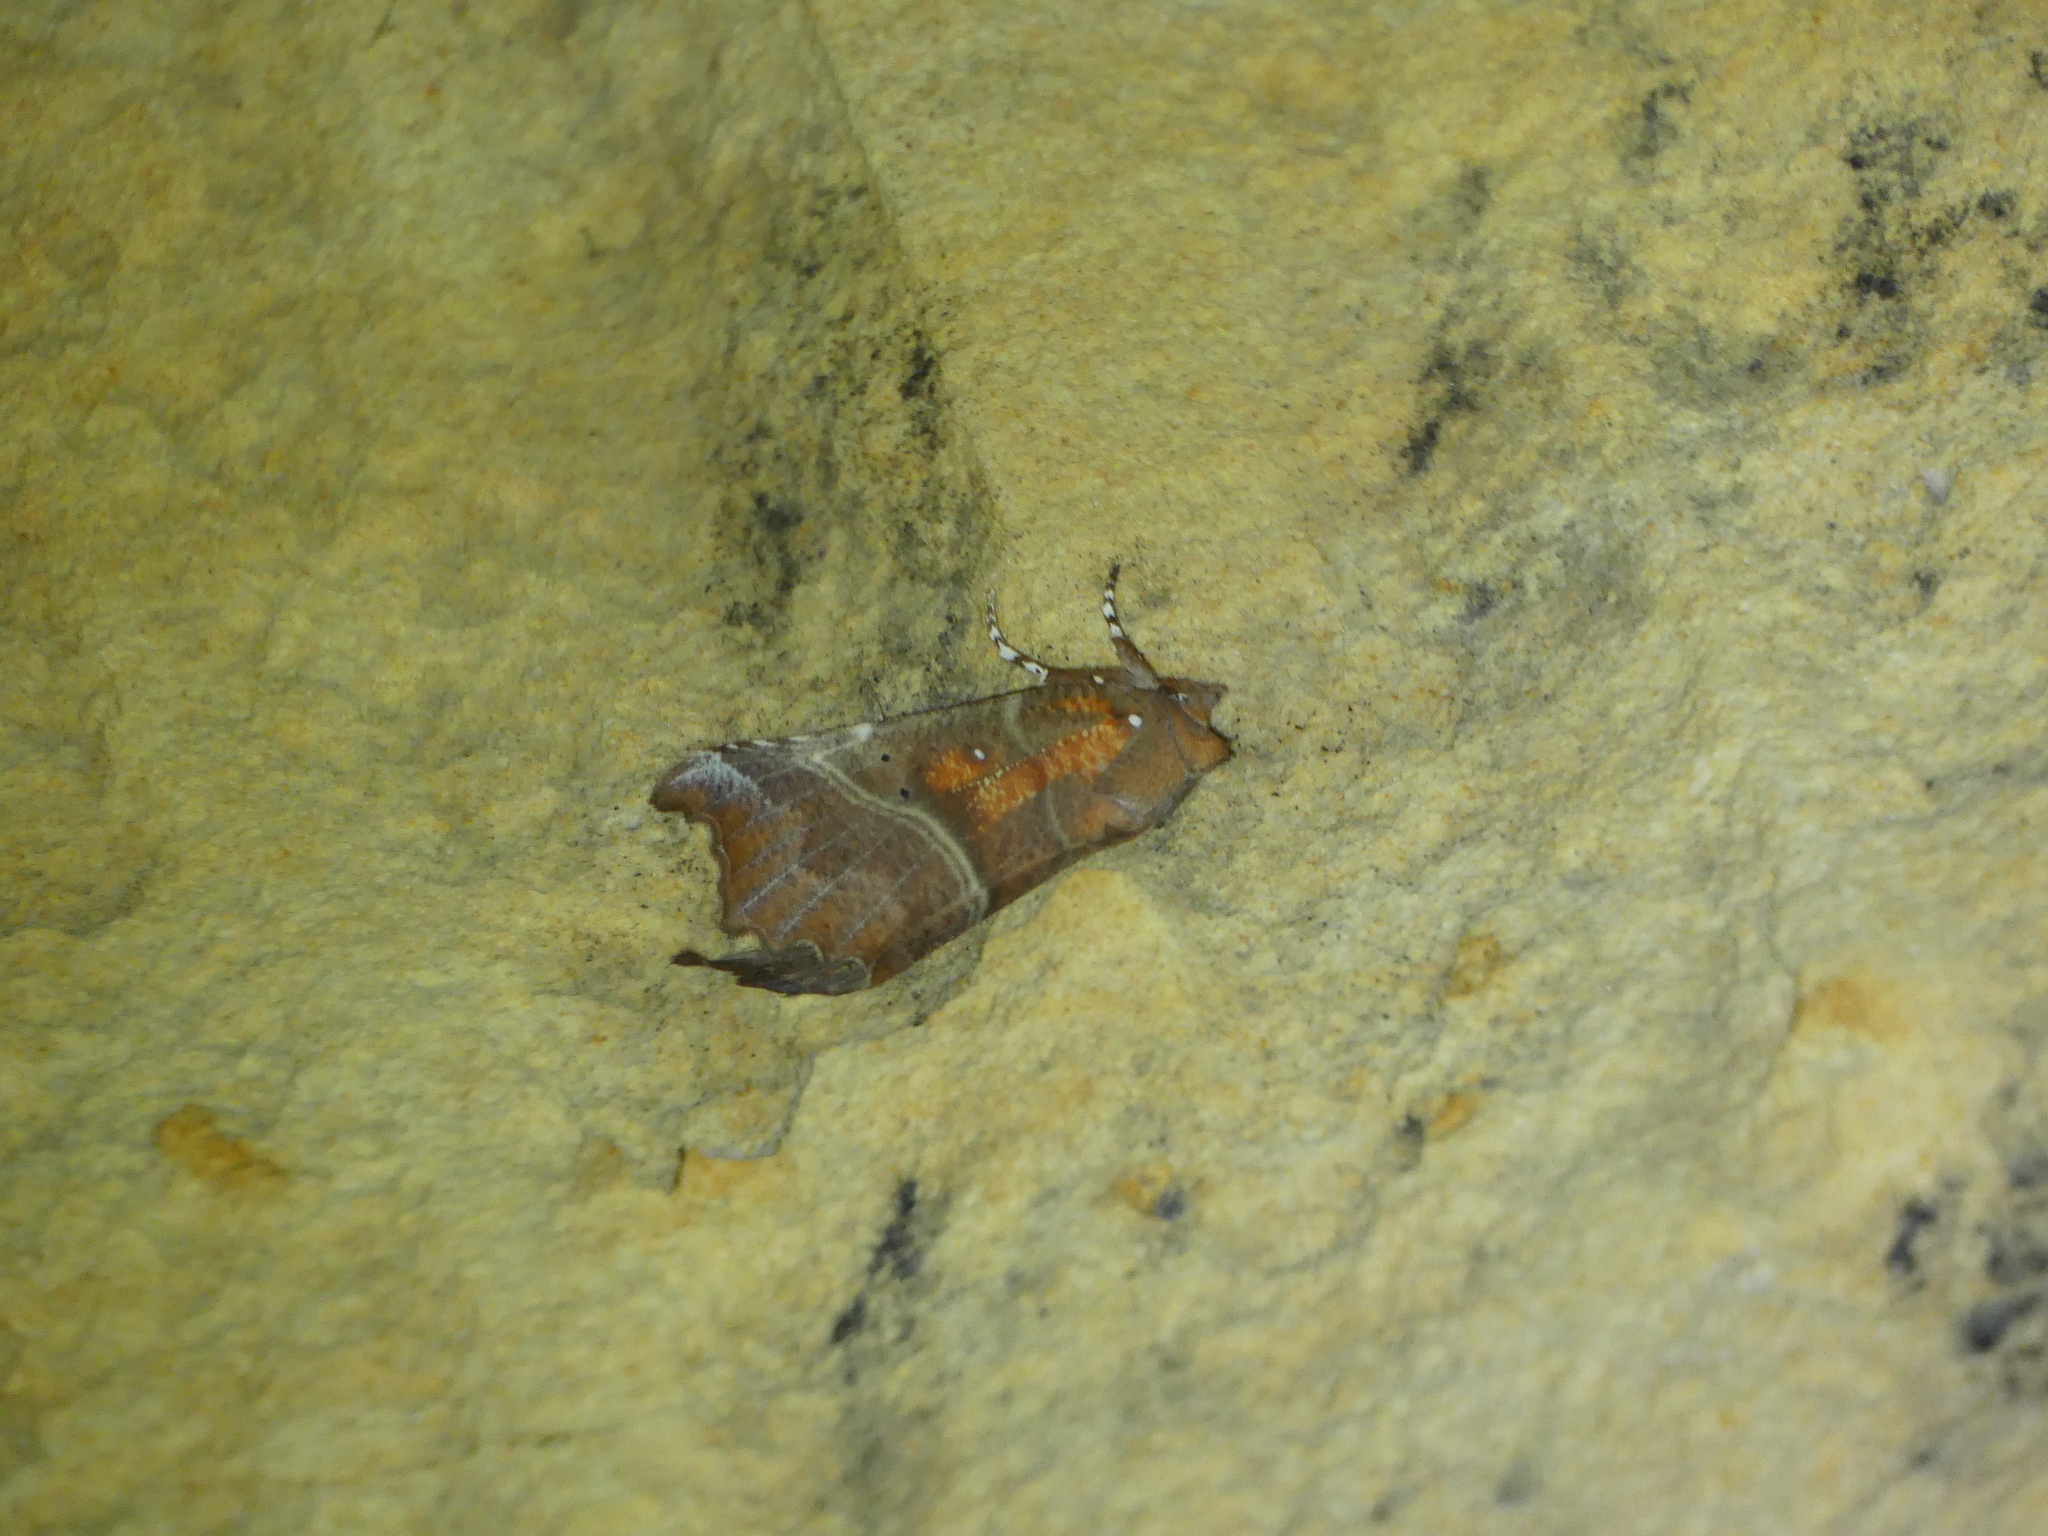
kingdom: Animalia
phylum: Arthropoda
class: Insecta
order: Lepidoptera
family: Erebidae
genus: Scoliopteryx
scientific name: Scoliopteryx libatrix
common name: Herald
